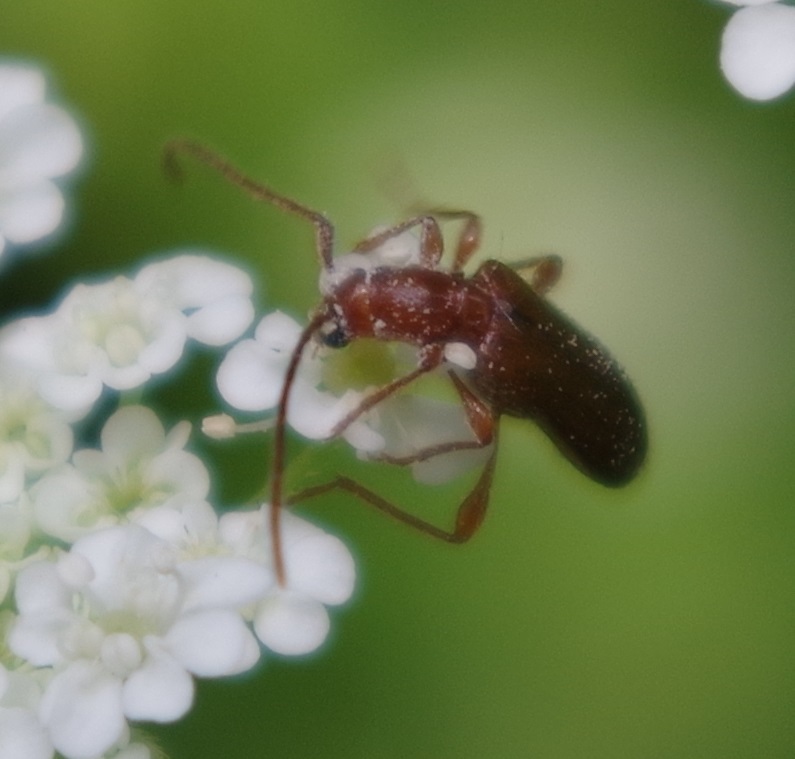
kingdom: Animalia
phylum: Arthropoda
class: Insecta
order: Coleoptera
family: Cerambycidae
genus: Obrium
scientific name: Obrium brunneum
